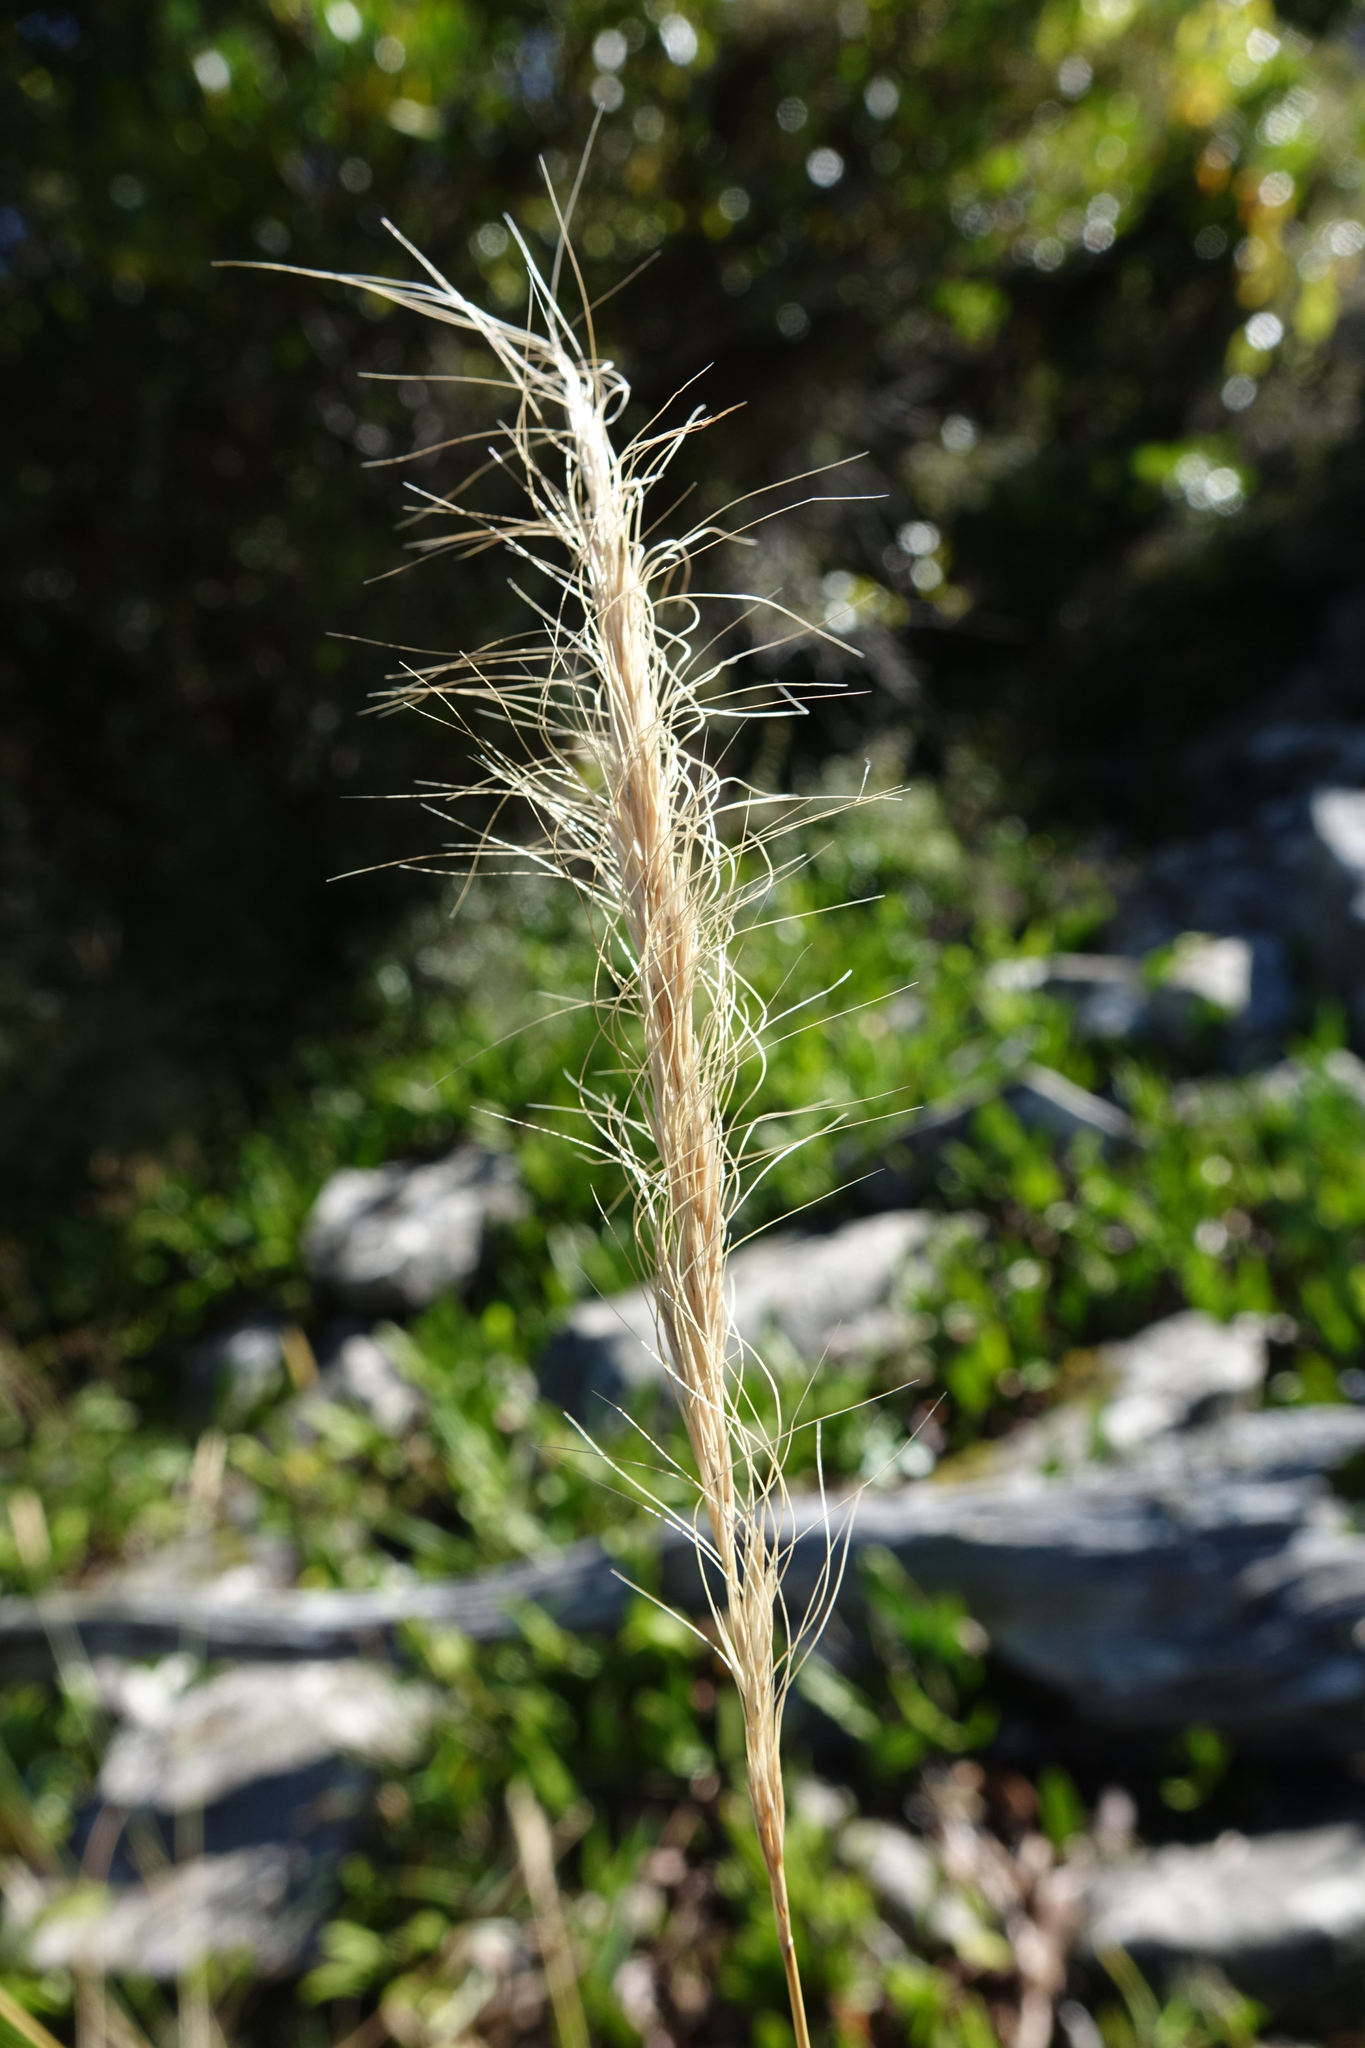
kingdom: Plantae
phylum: Tracheophyta
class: Liliopsida
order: Poales
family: Poaceae
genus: Dichelachne
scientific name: Dichelachne crinita
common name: Clovenfoot plumegrass
